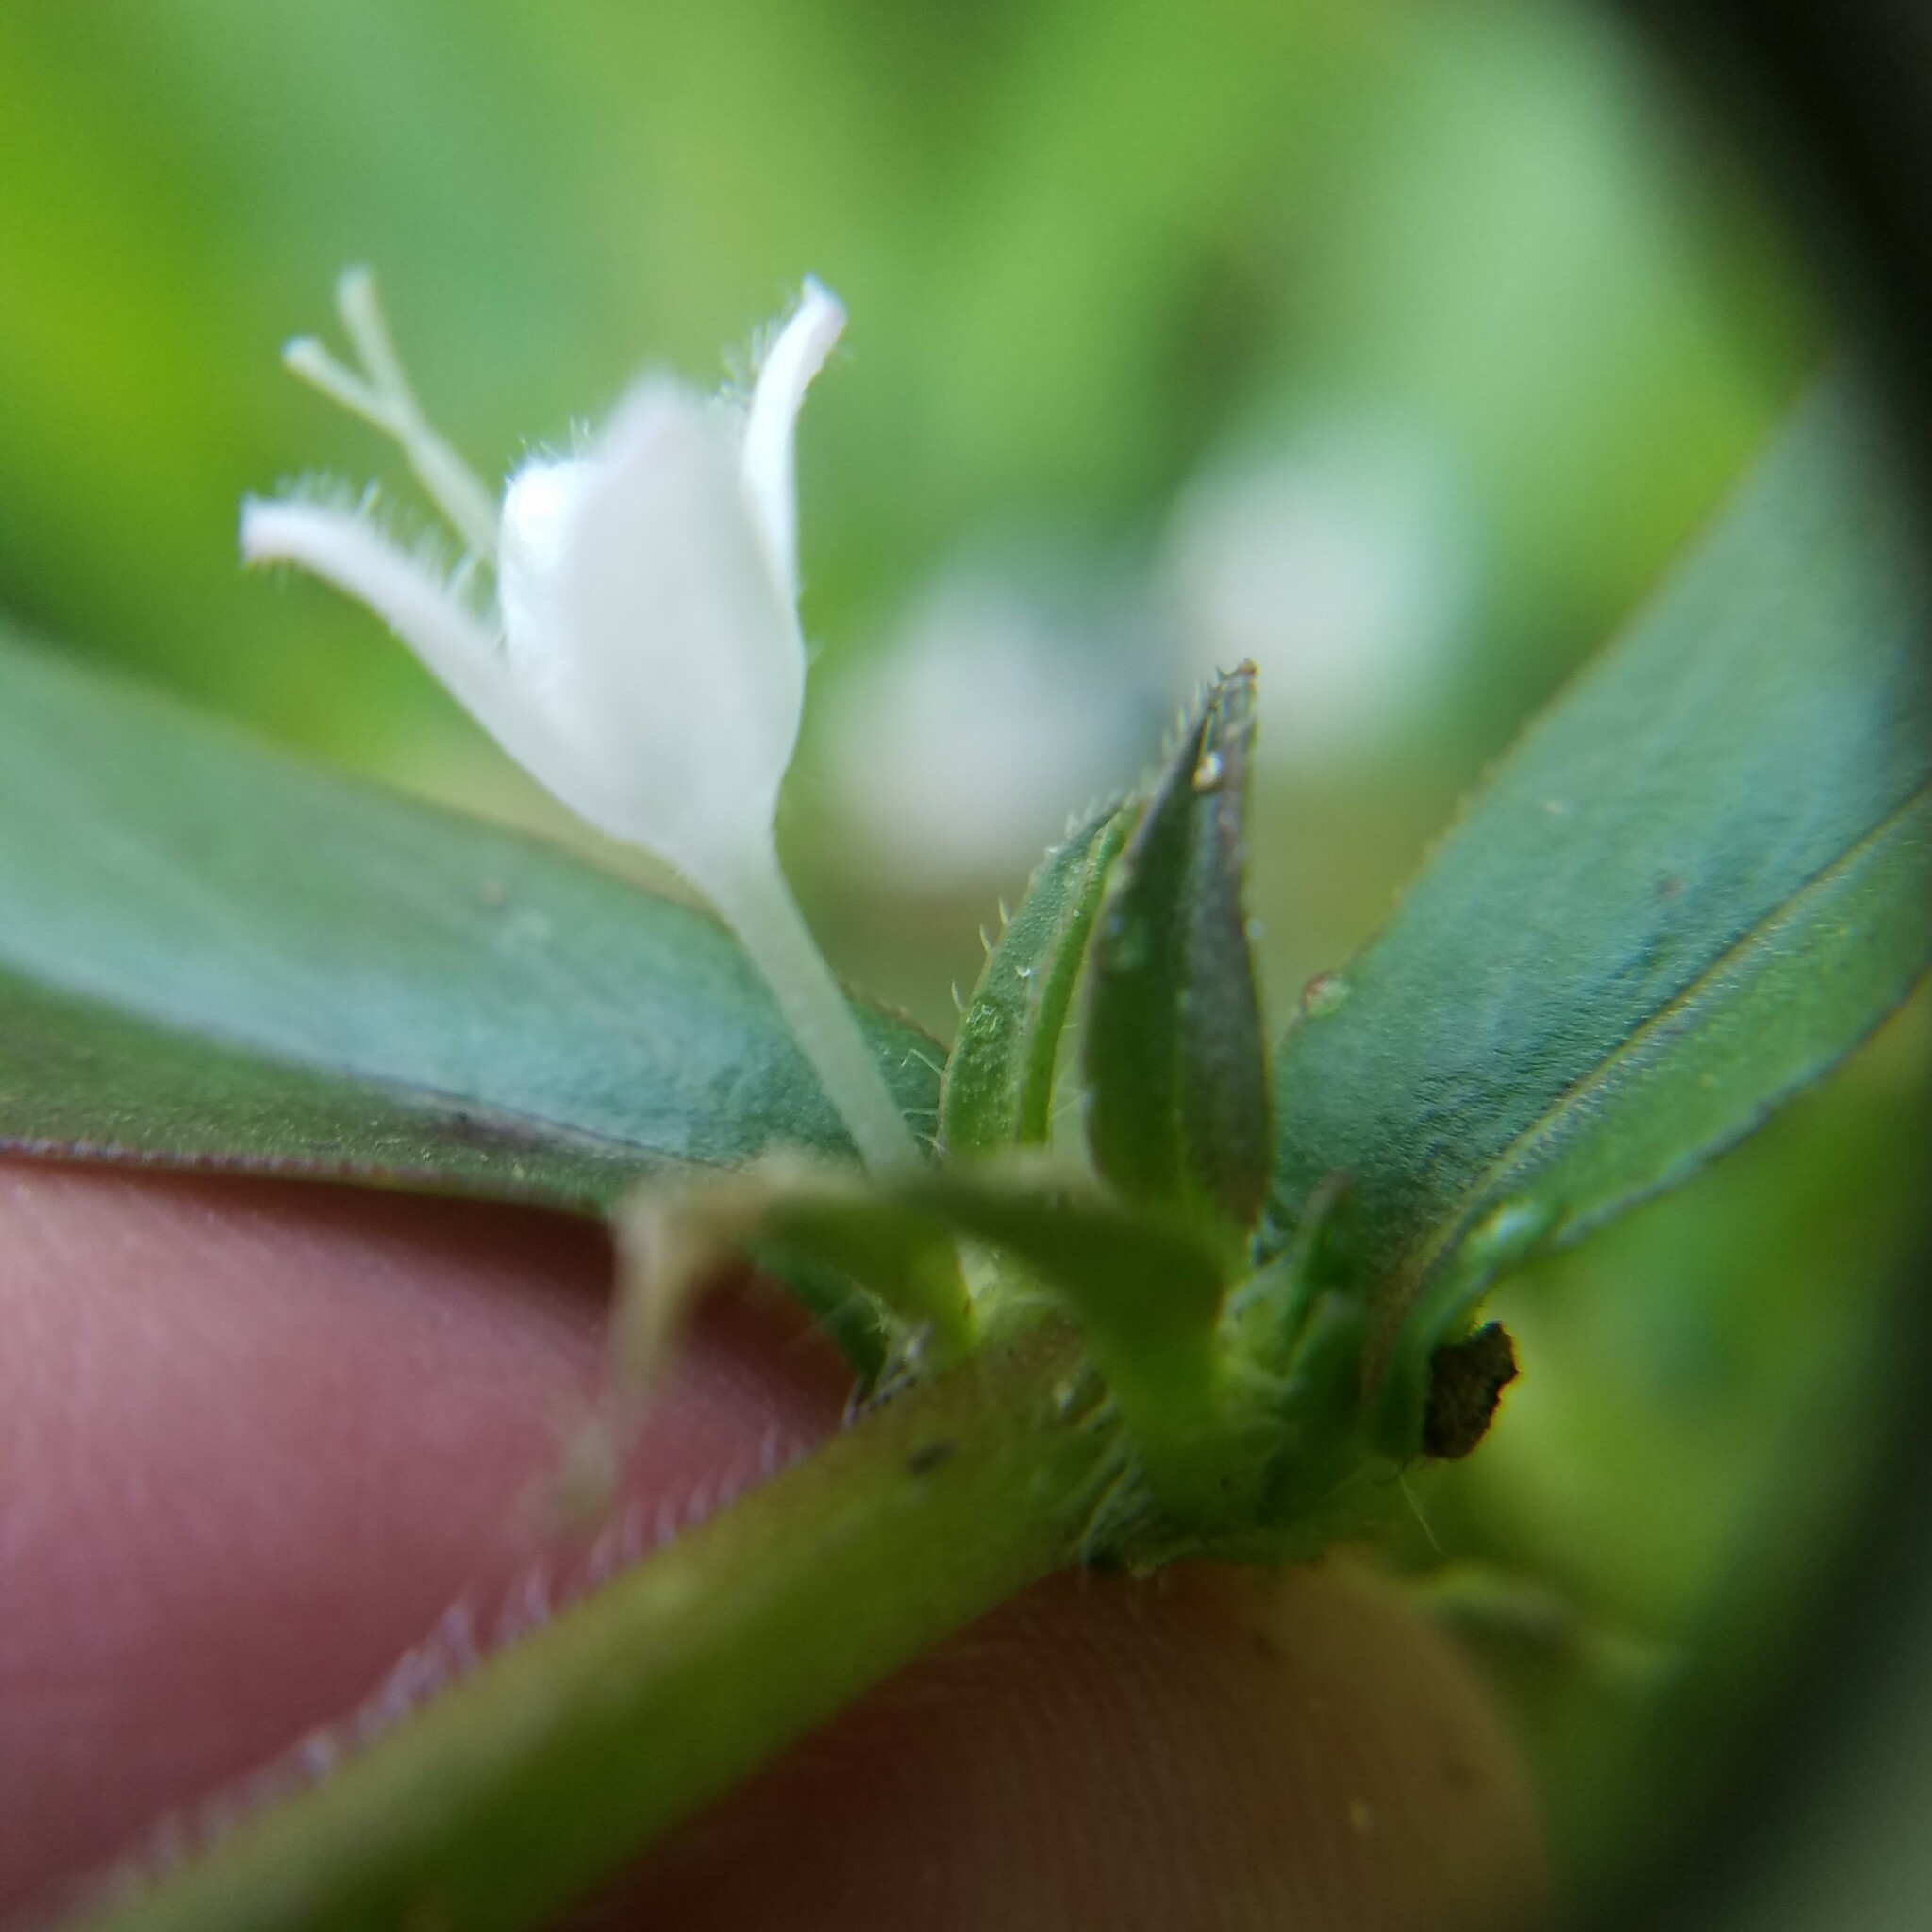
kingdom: Plantae
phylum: Tracheophyta
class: Magnoliopsida
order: Gentianales
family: Rubiaceae
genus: Diodia
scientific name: Diodia virginiana
